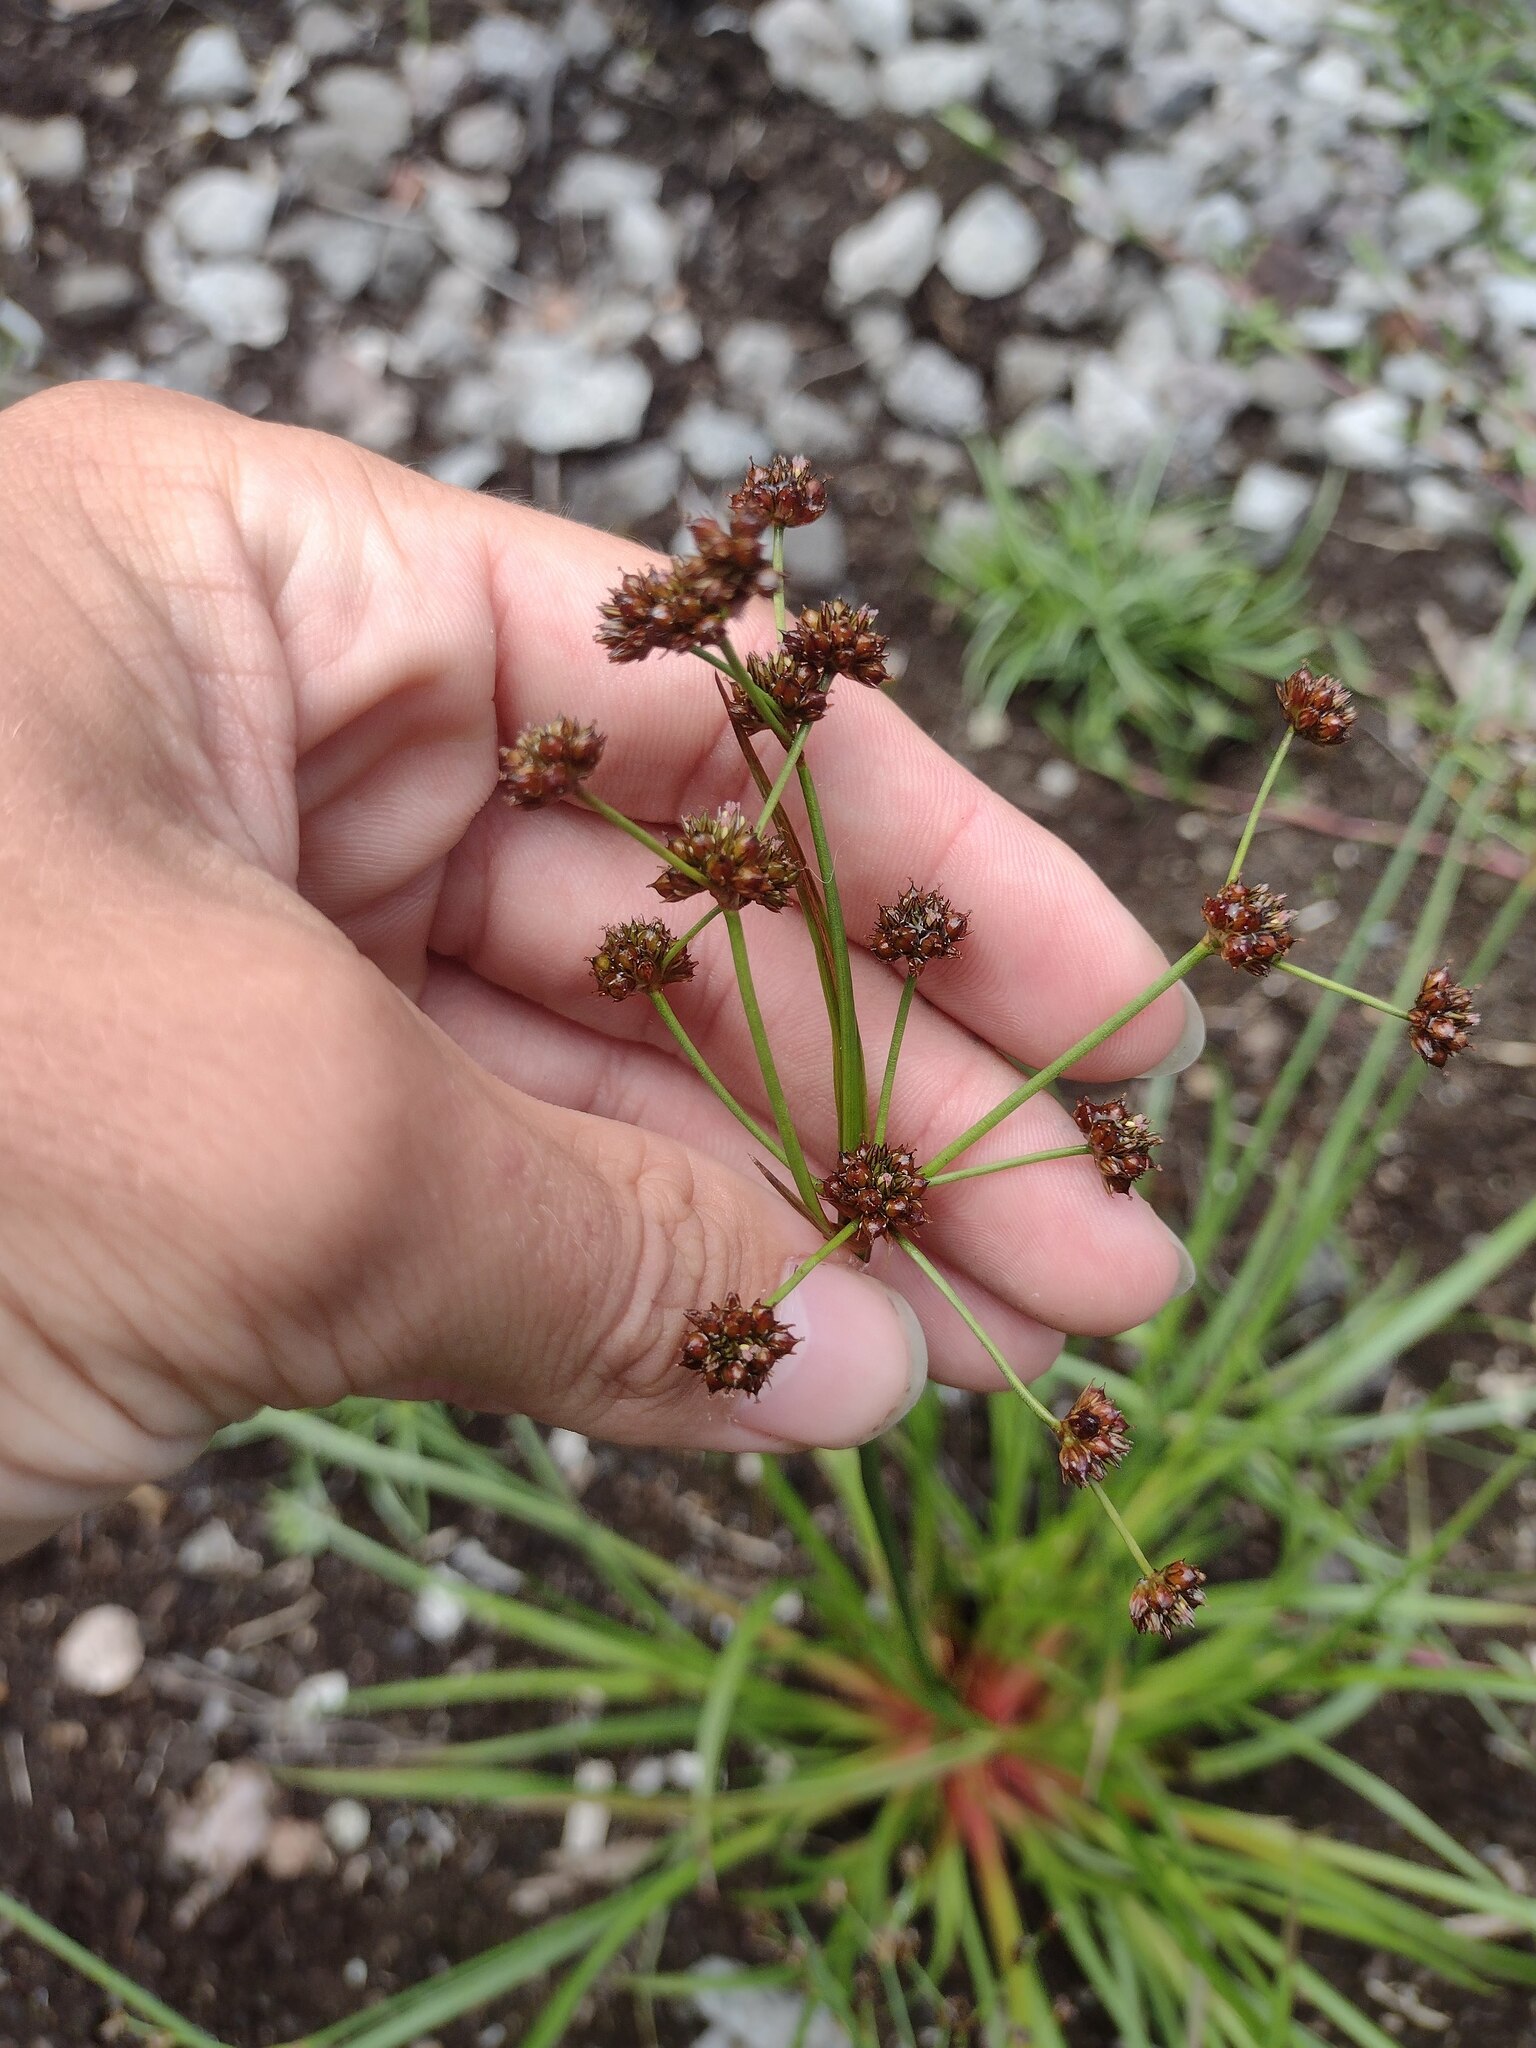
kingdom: Plantae
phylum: Tracheophyta
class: Liliopsida
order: Poales
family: Juncaceae
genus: Juncus
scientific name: Juncus planifolius
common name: Broadleaf rush
